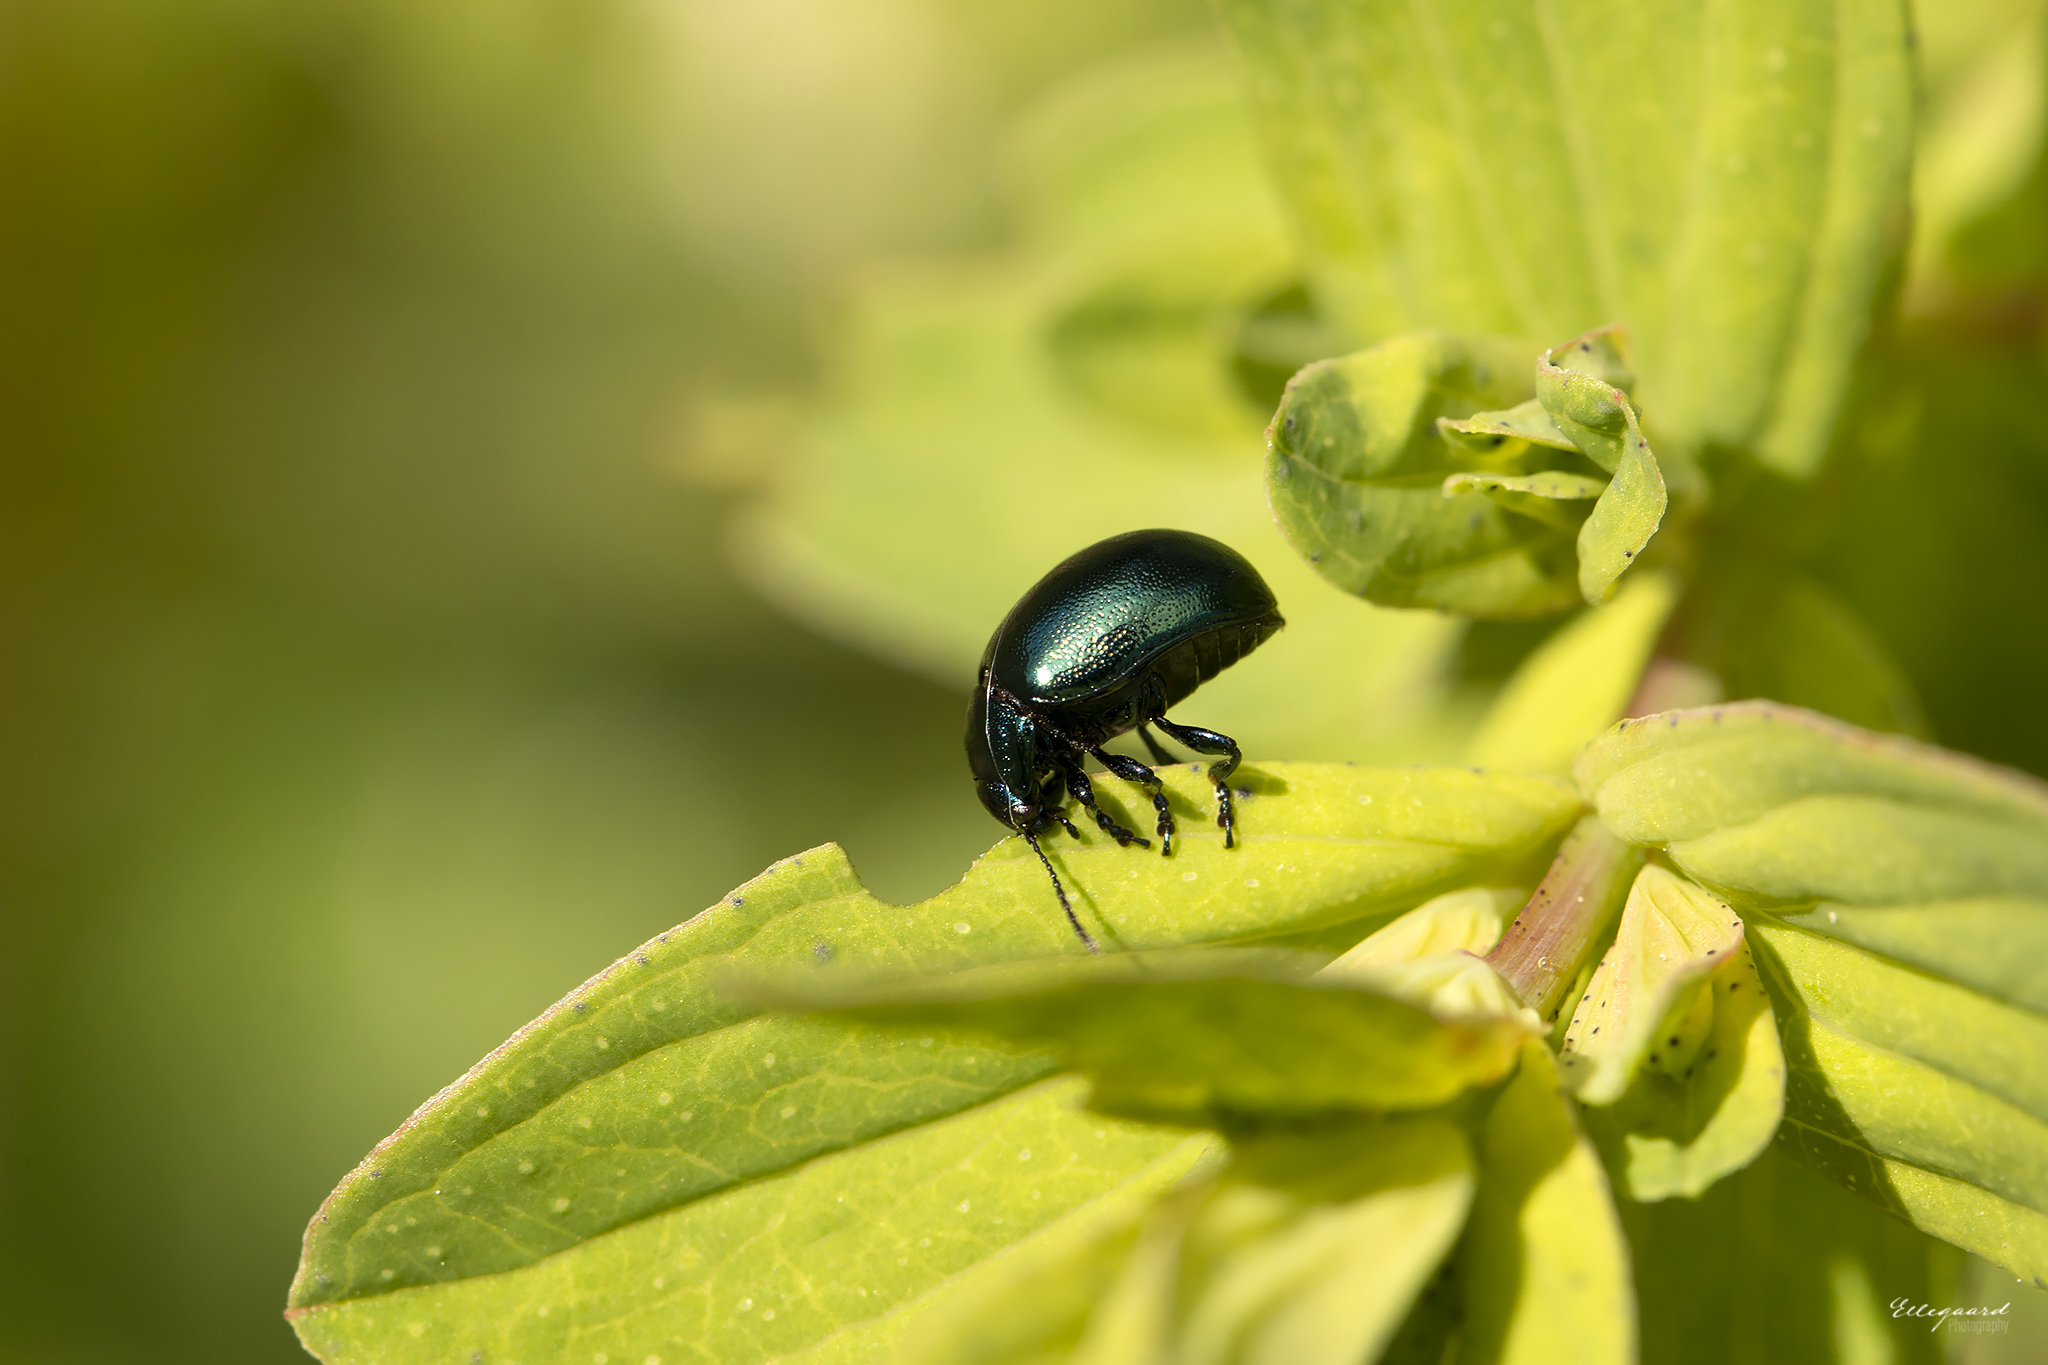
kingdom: Animalia
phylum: Arthropoda
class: Insecta
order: Coleoptera
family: Chrysomelidae
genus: Chrysolina
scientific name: Chrysolina varians
